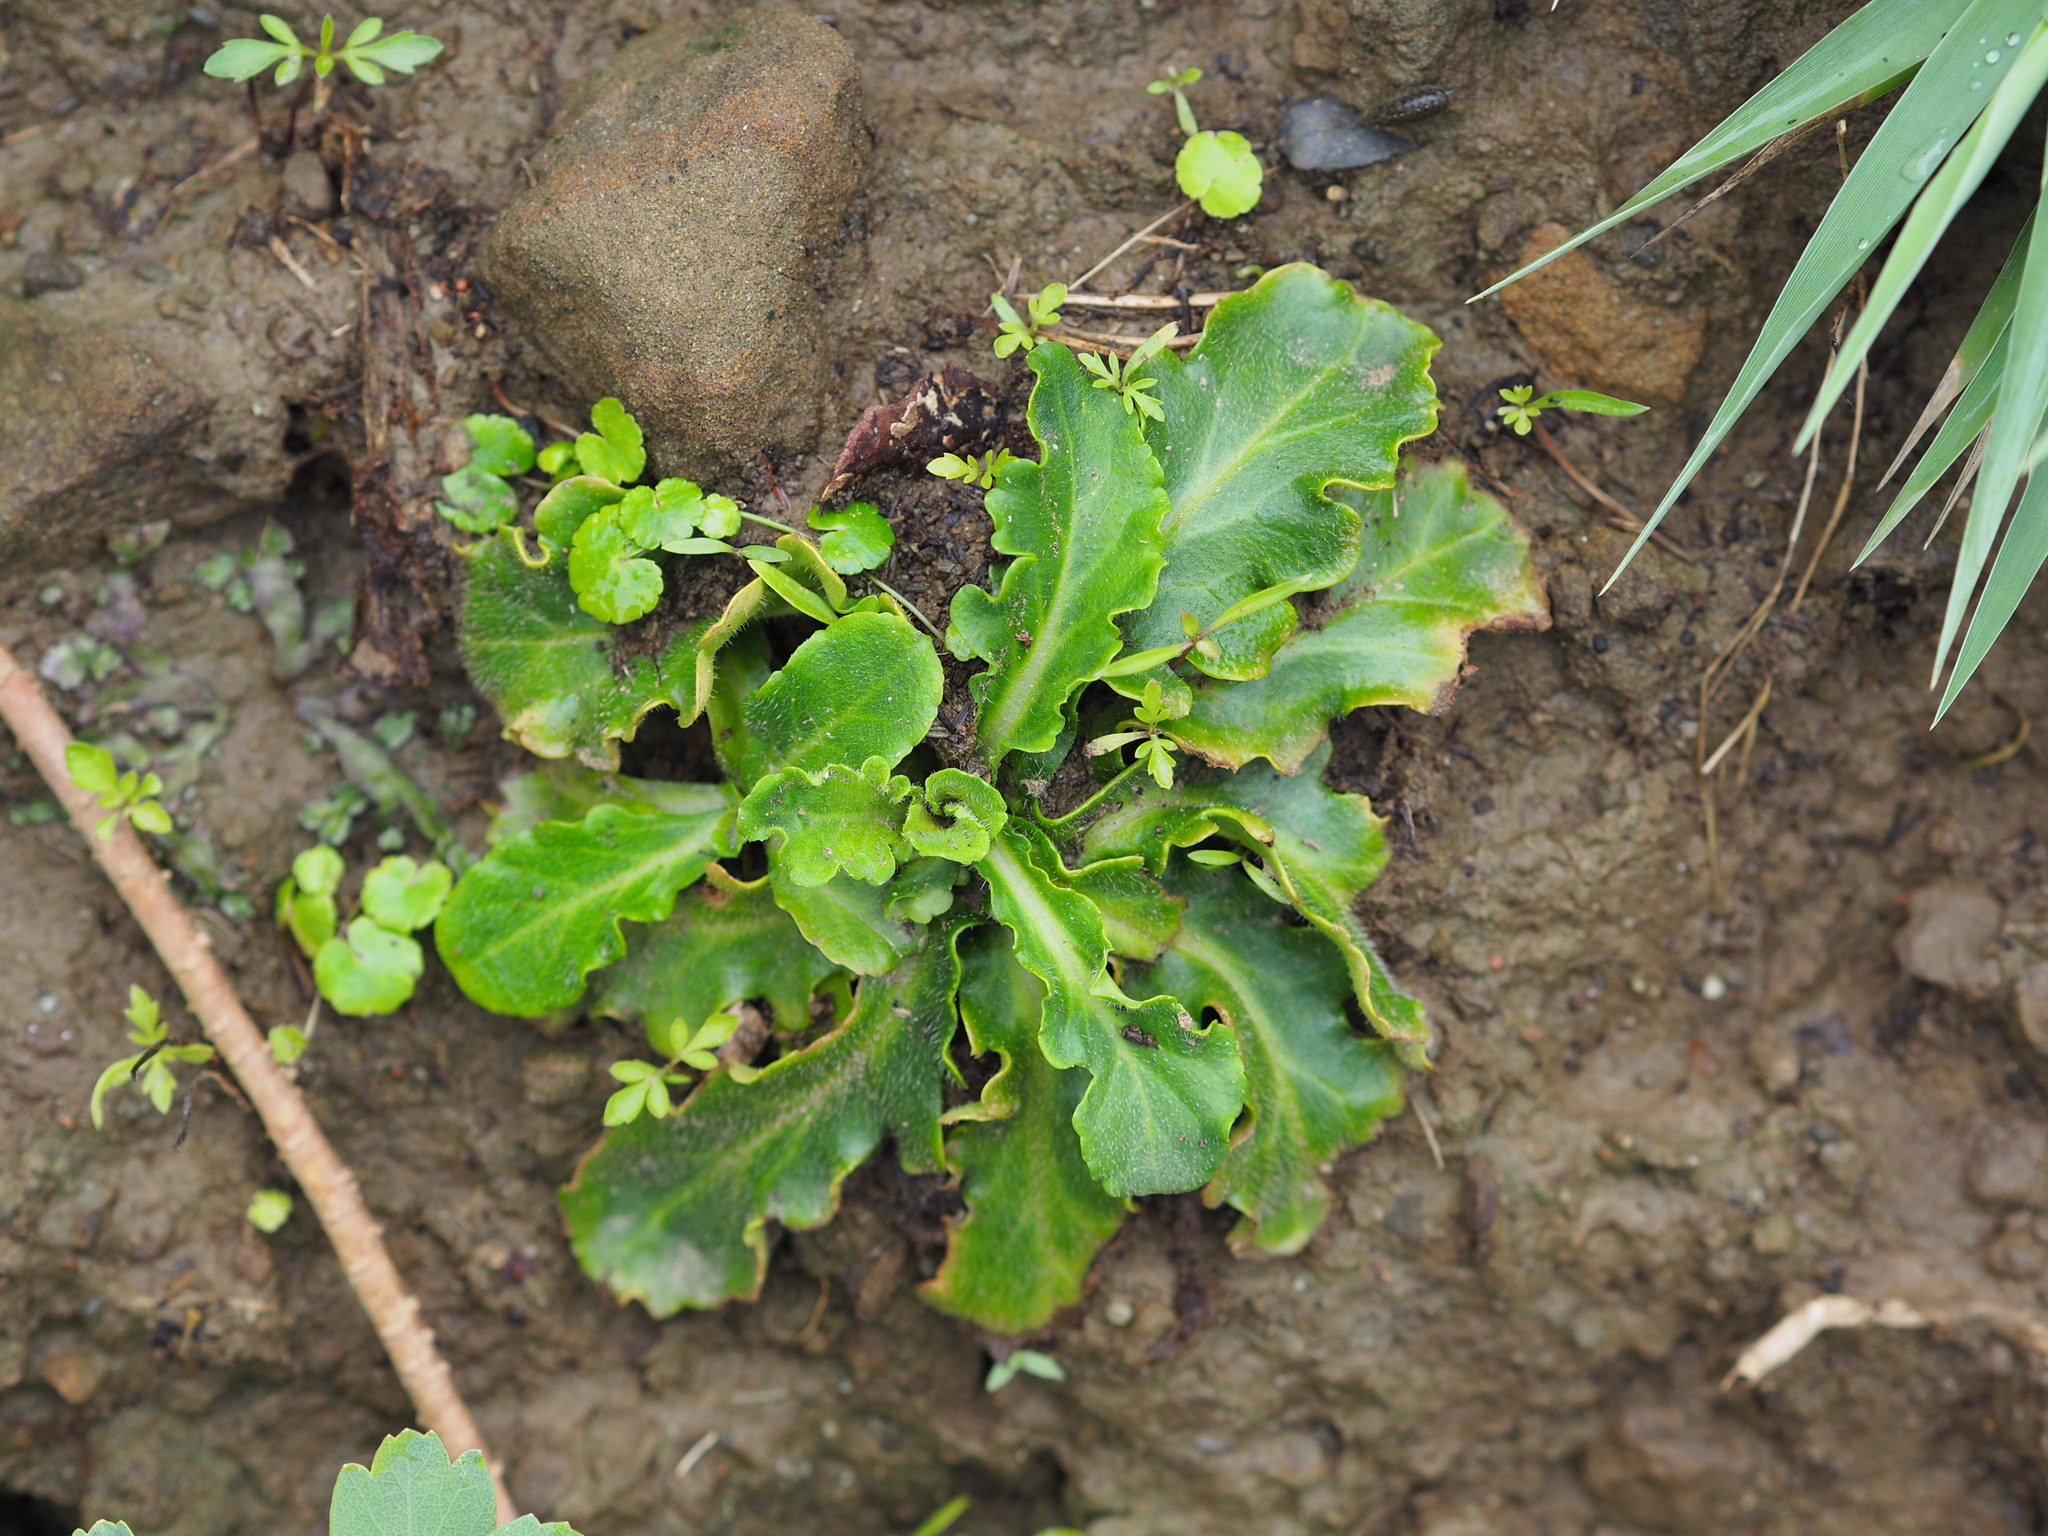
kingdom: Plantae
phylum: Tracheophyta
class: Magnoliopsida
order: Lamiales
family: Lamiaceae
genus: Ajuga
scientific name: Ajuga pygmaea
